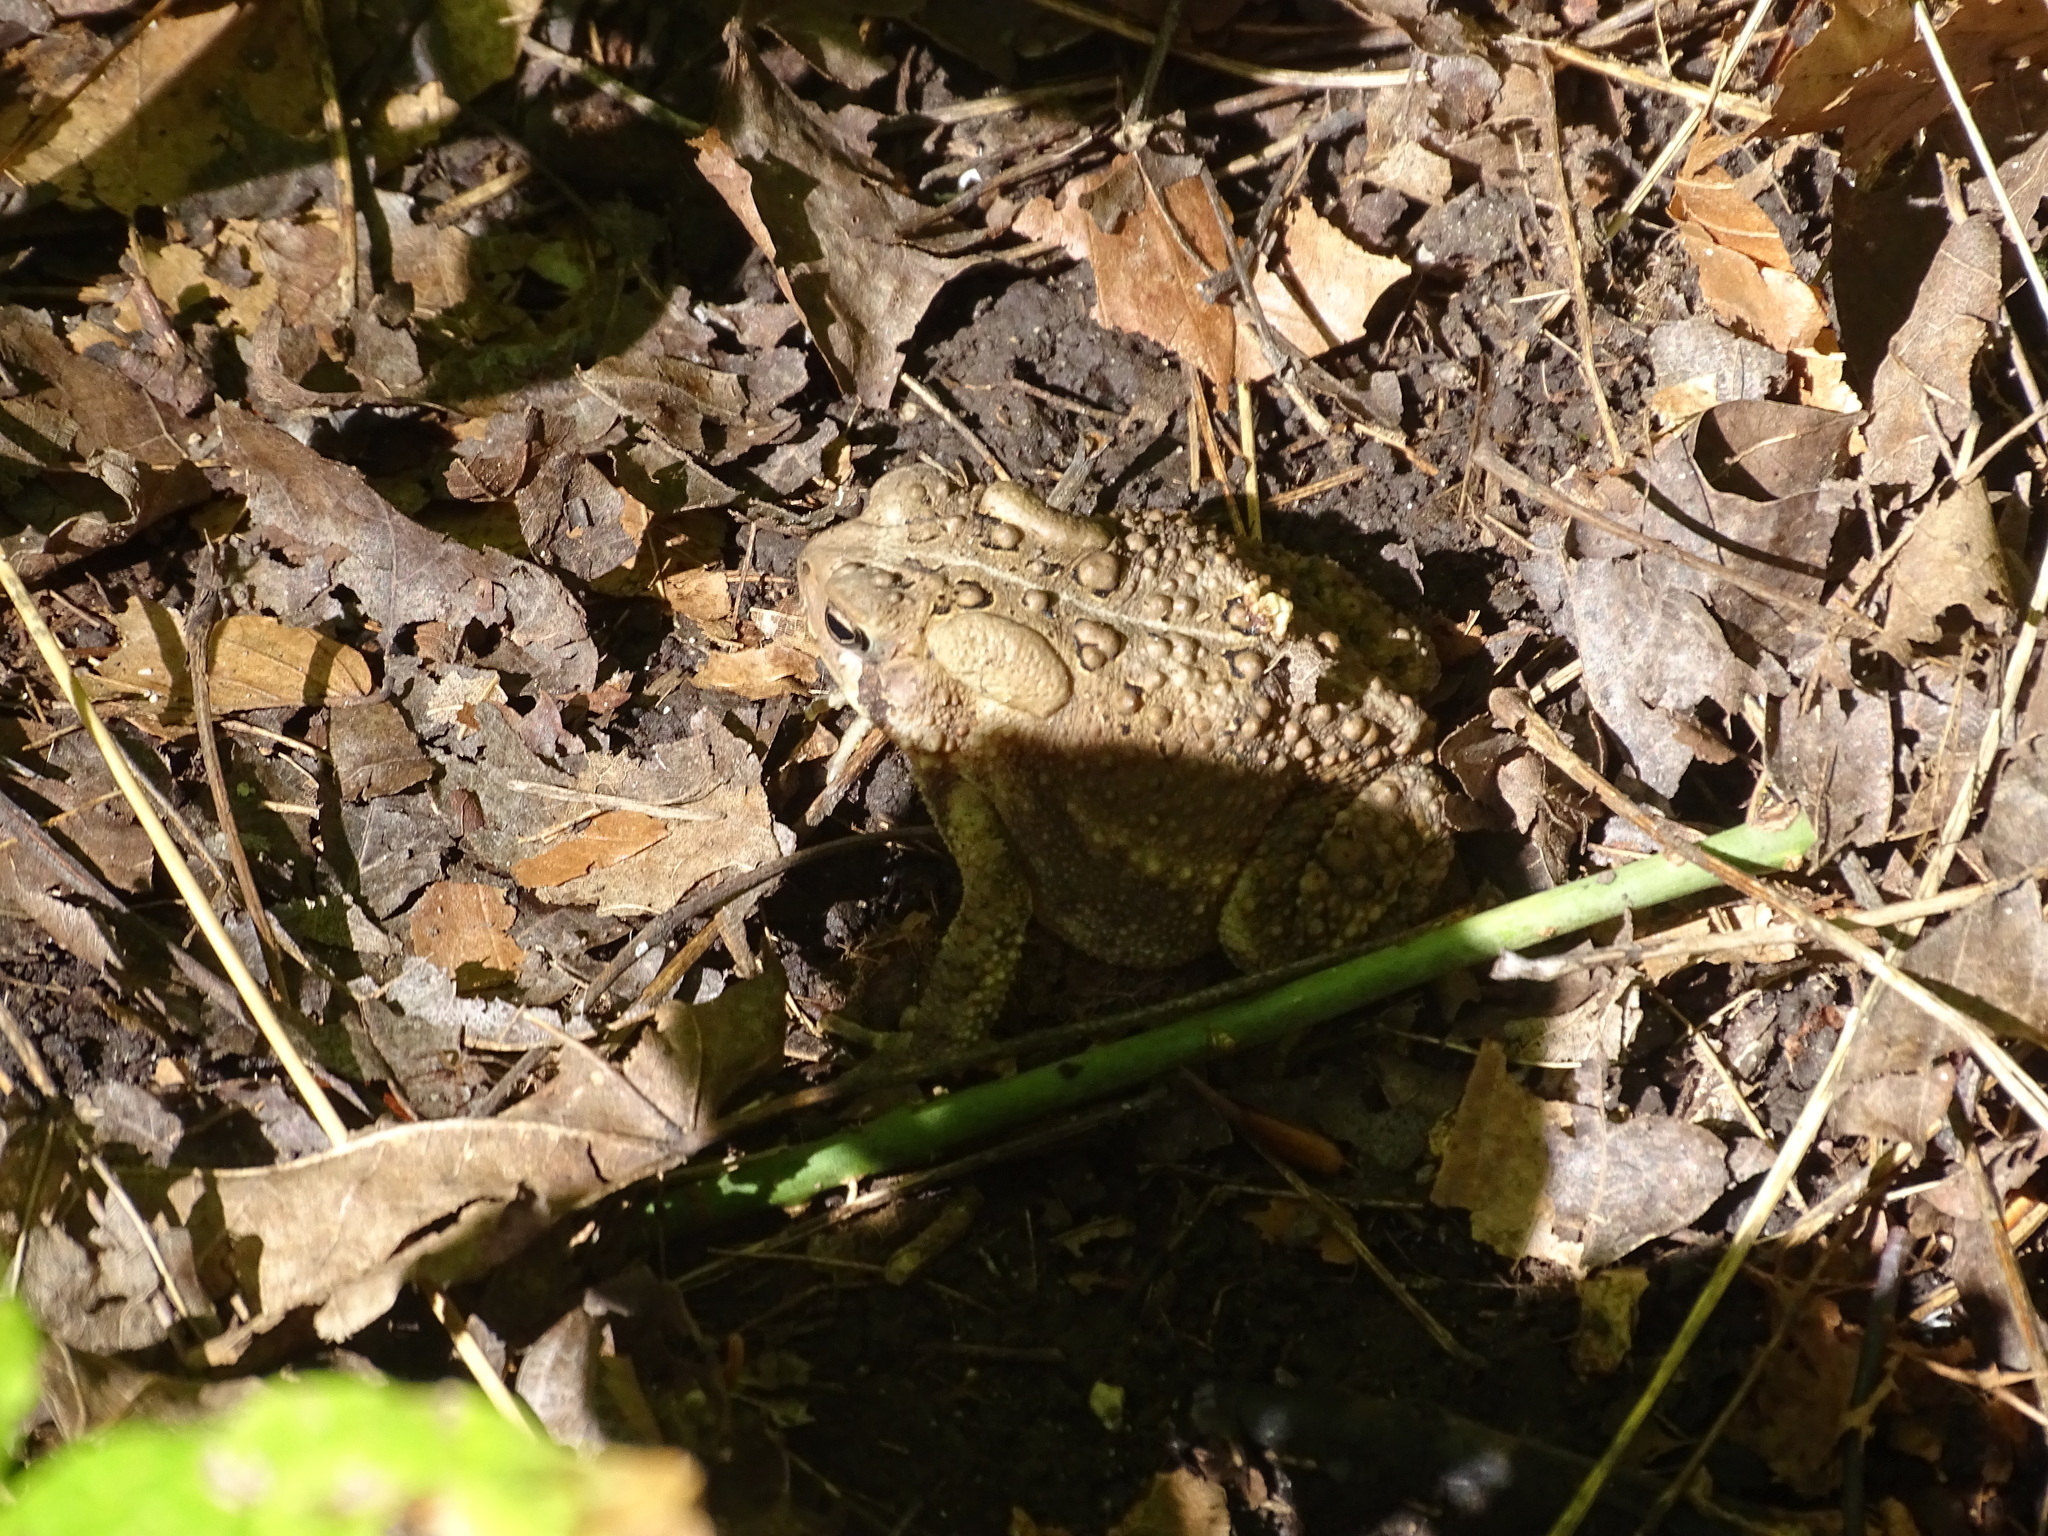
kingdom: Animalia
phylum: Chordata
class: Amphibia
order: Anura
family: Bufonidae
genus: Anaxyrus
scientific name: Anaxyrus americanus
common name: American toad
